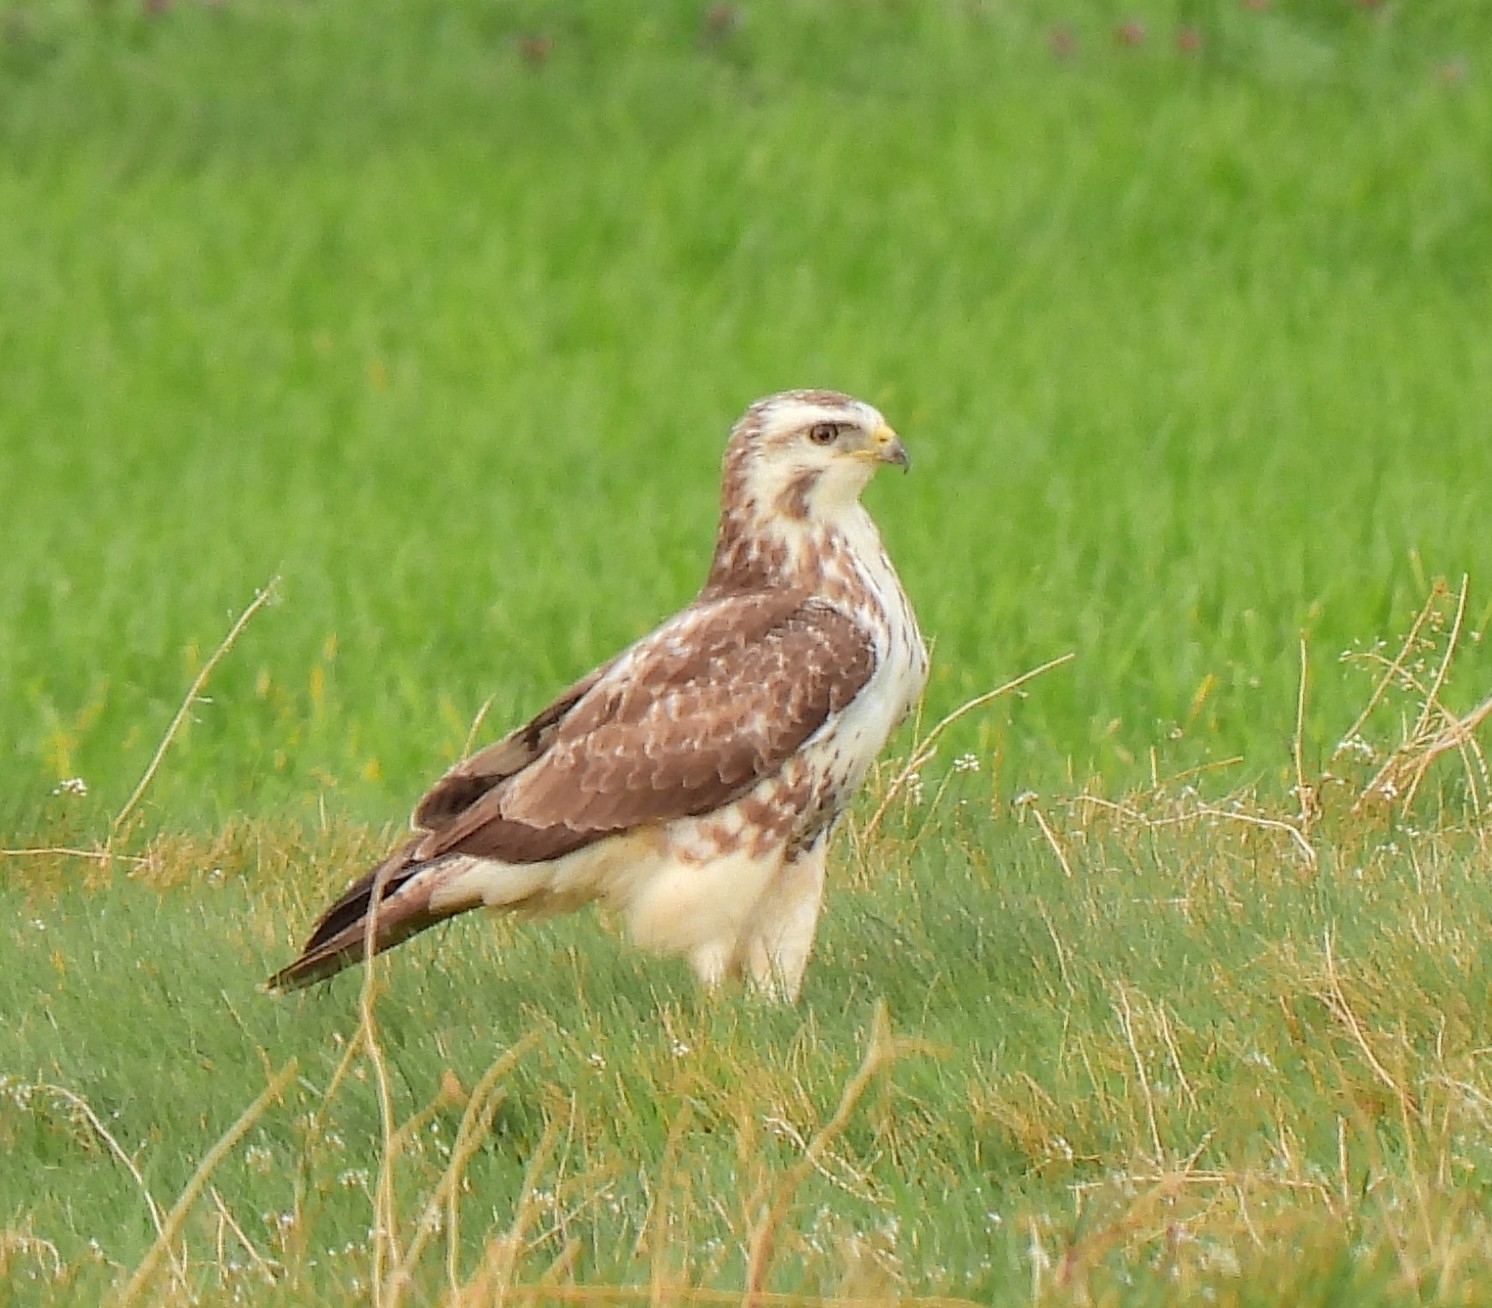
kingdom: Animalia
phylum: Chordata
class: Aves
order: Accipitriformes
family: Accipitridae
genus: Buteo
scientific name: Buteo buteo
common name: Common buzzard
